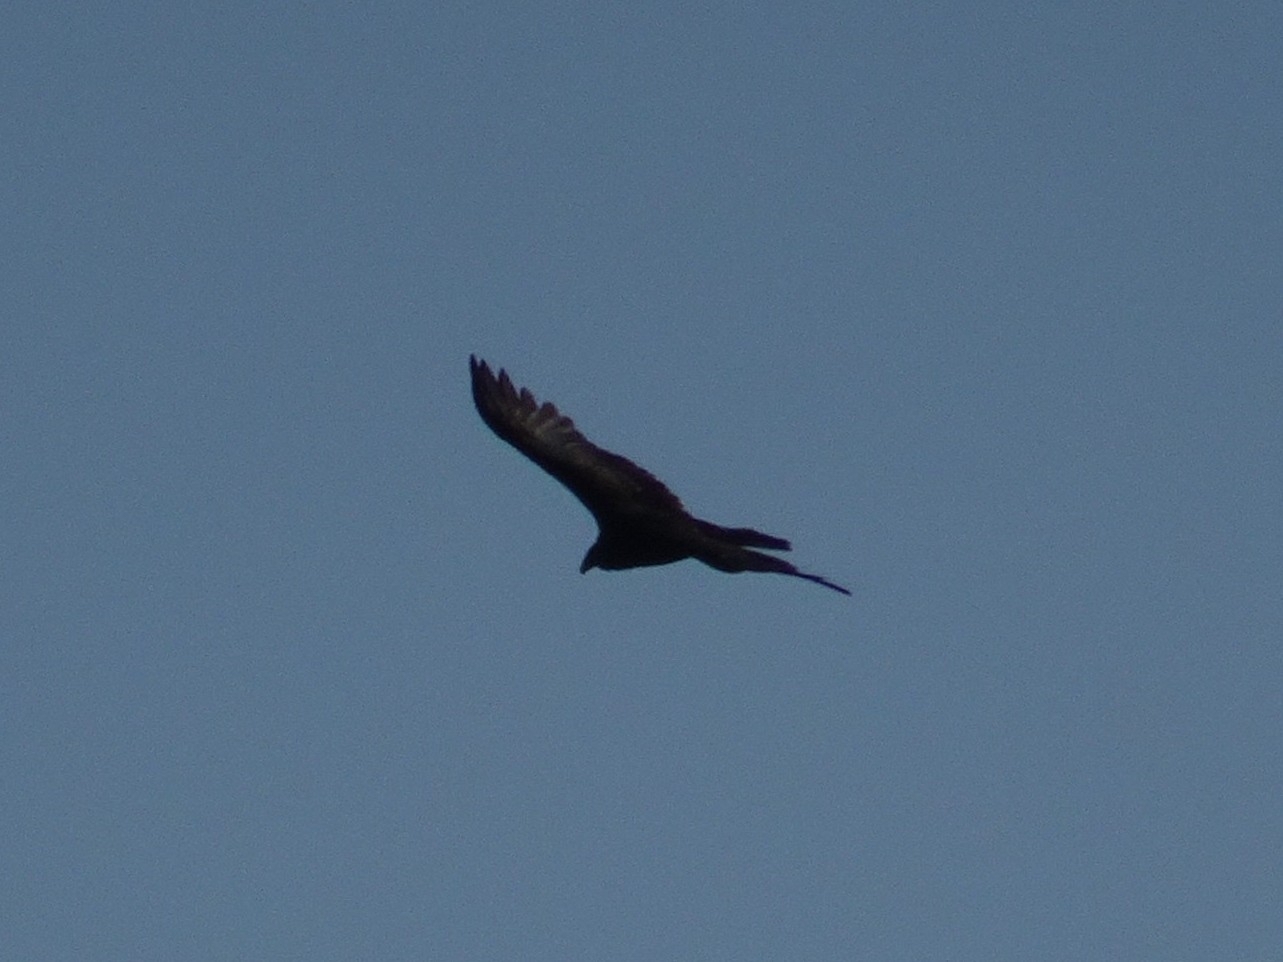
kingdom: Animalia
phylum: Chordata
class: Aves
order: Accipitriformes
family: Cathartidae
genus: Cathartes
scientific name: Cathartes aura
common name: Turkey vulture
